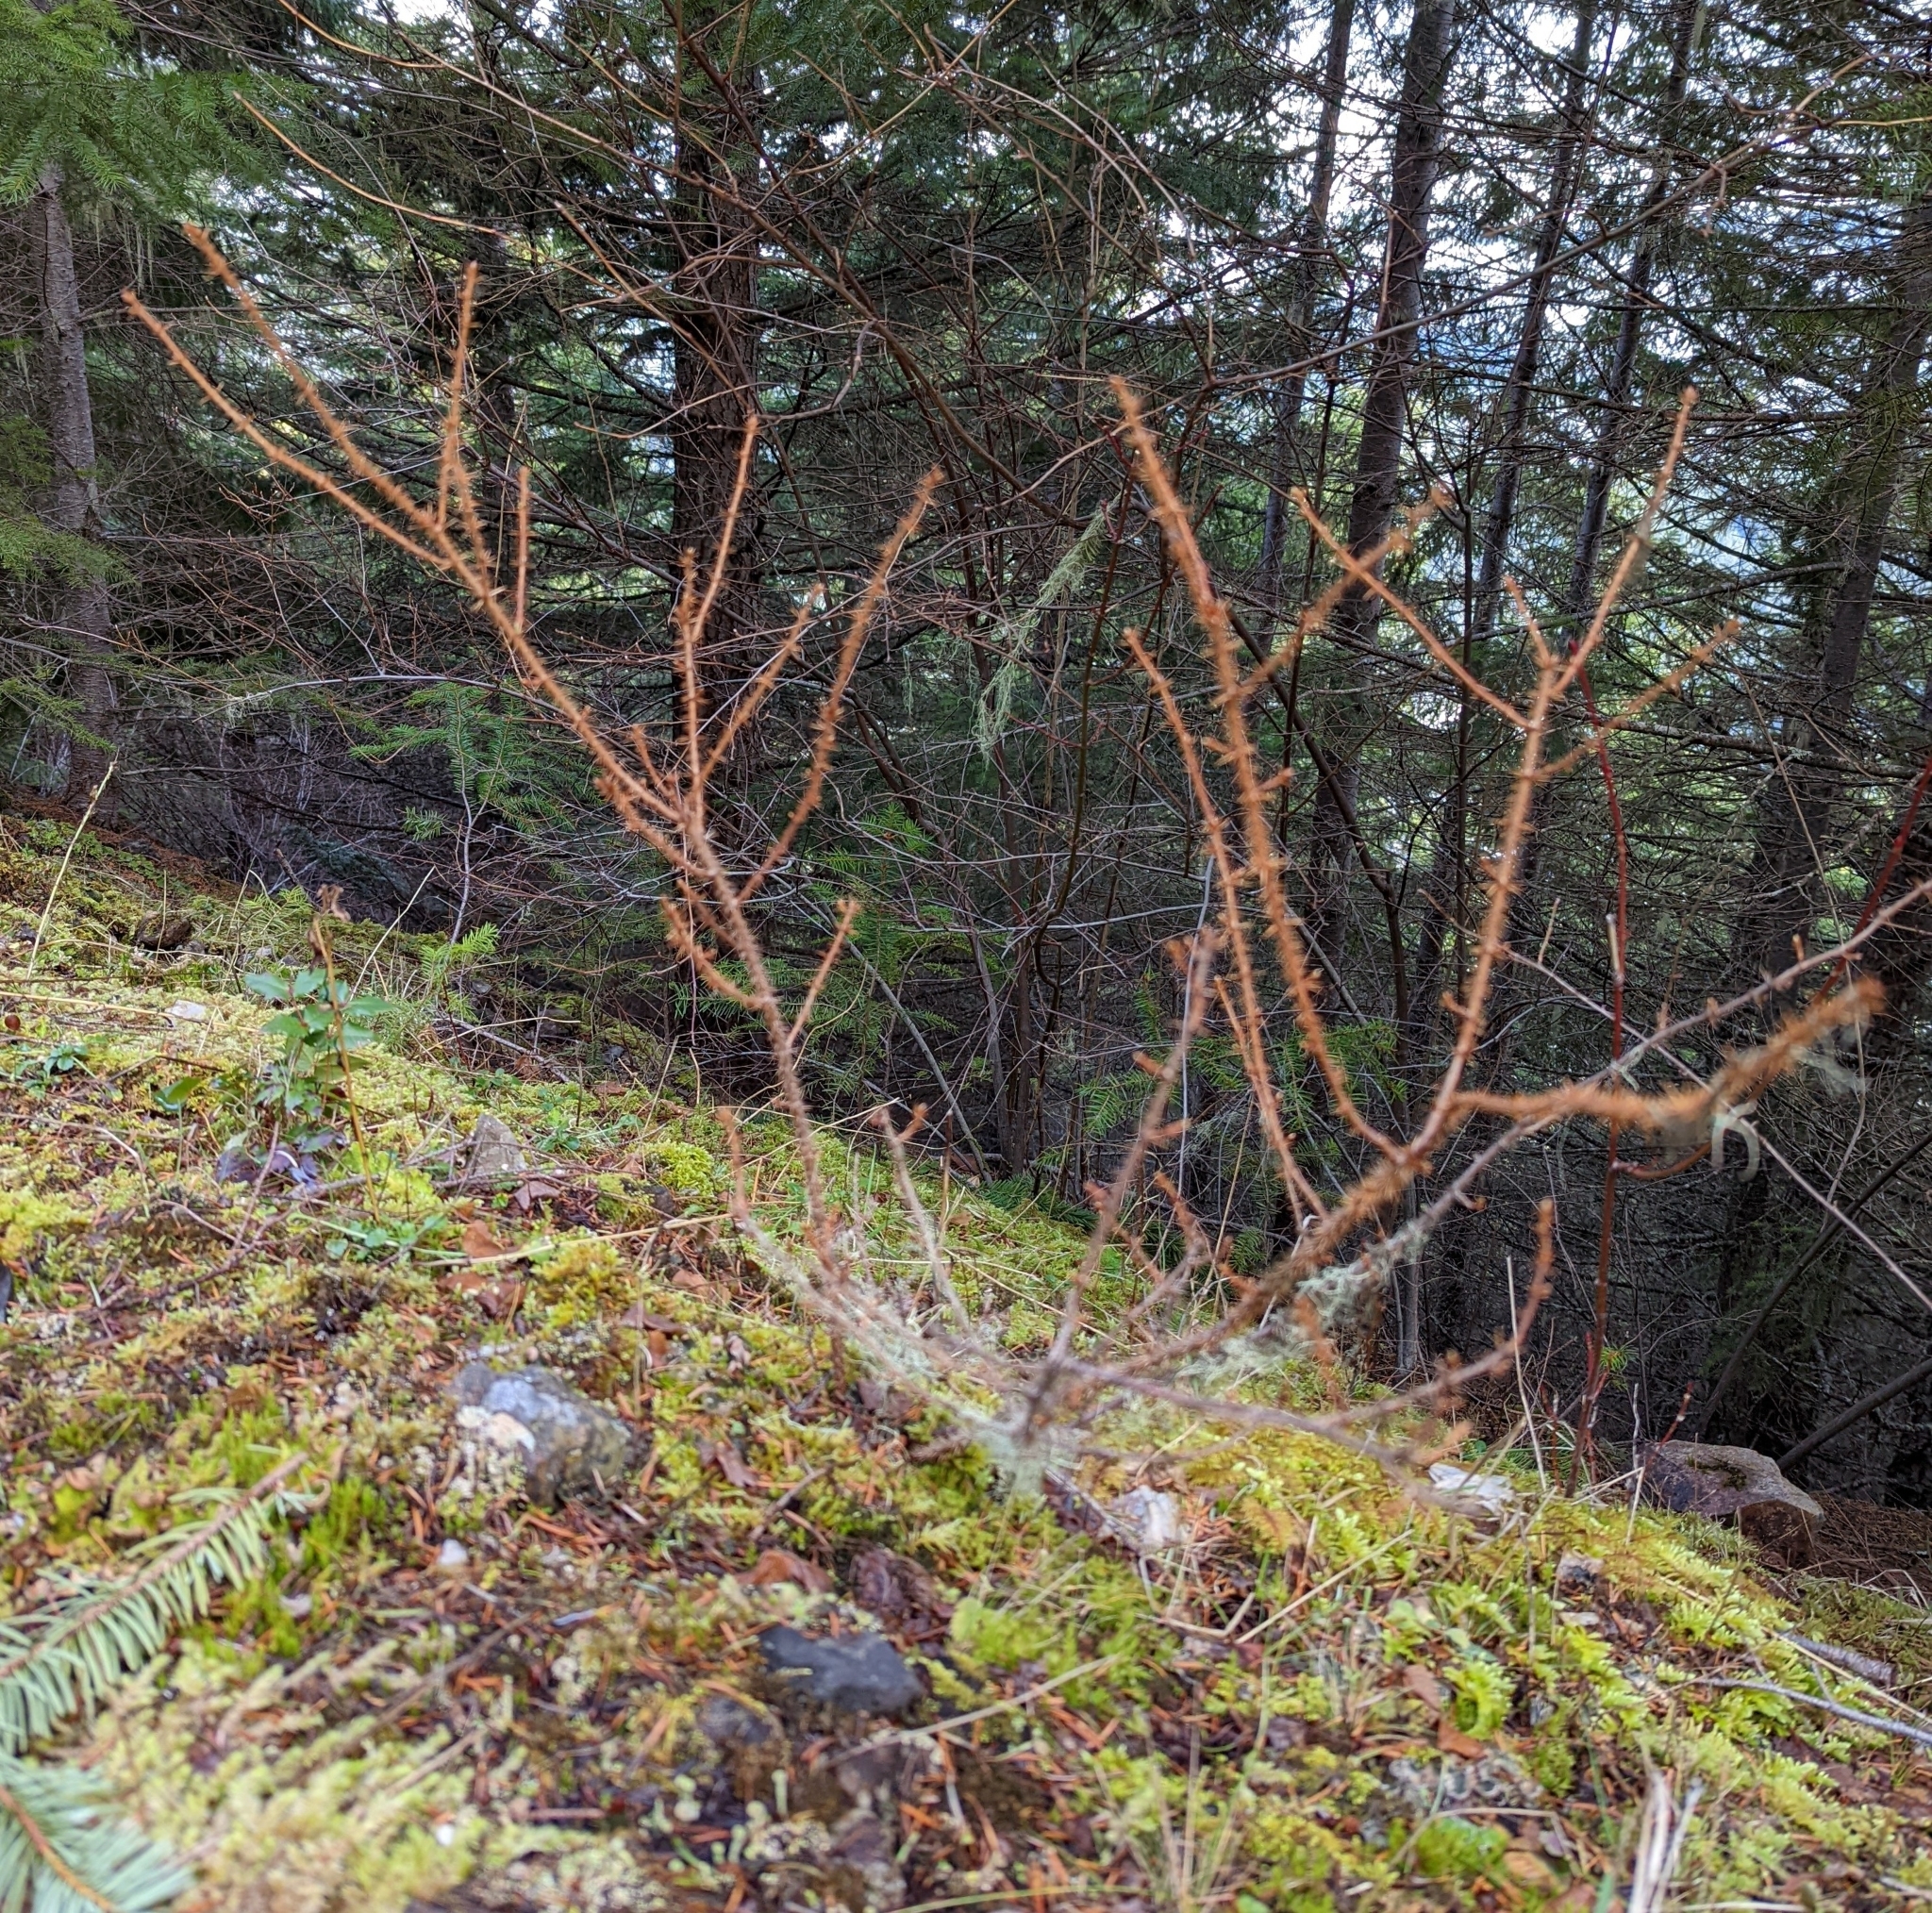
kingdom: Plantae
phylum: Tracheophyta
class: Magnoliopsida
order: Saxifragales
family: Grossulariaceae
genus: Ribes
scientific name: Ribes lacustre
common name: Black gooseberry
